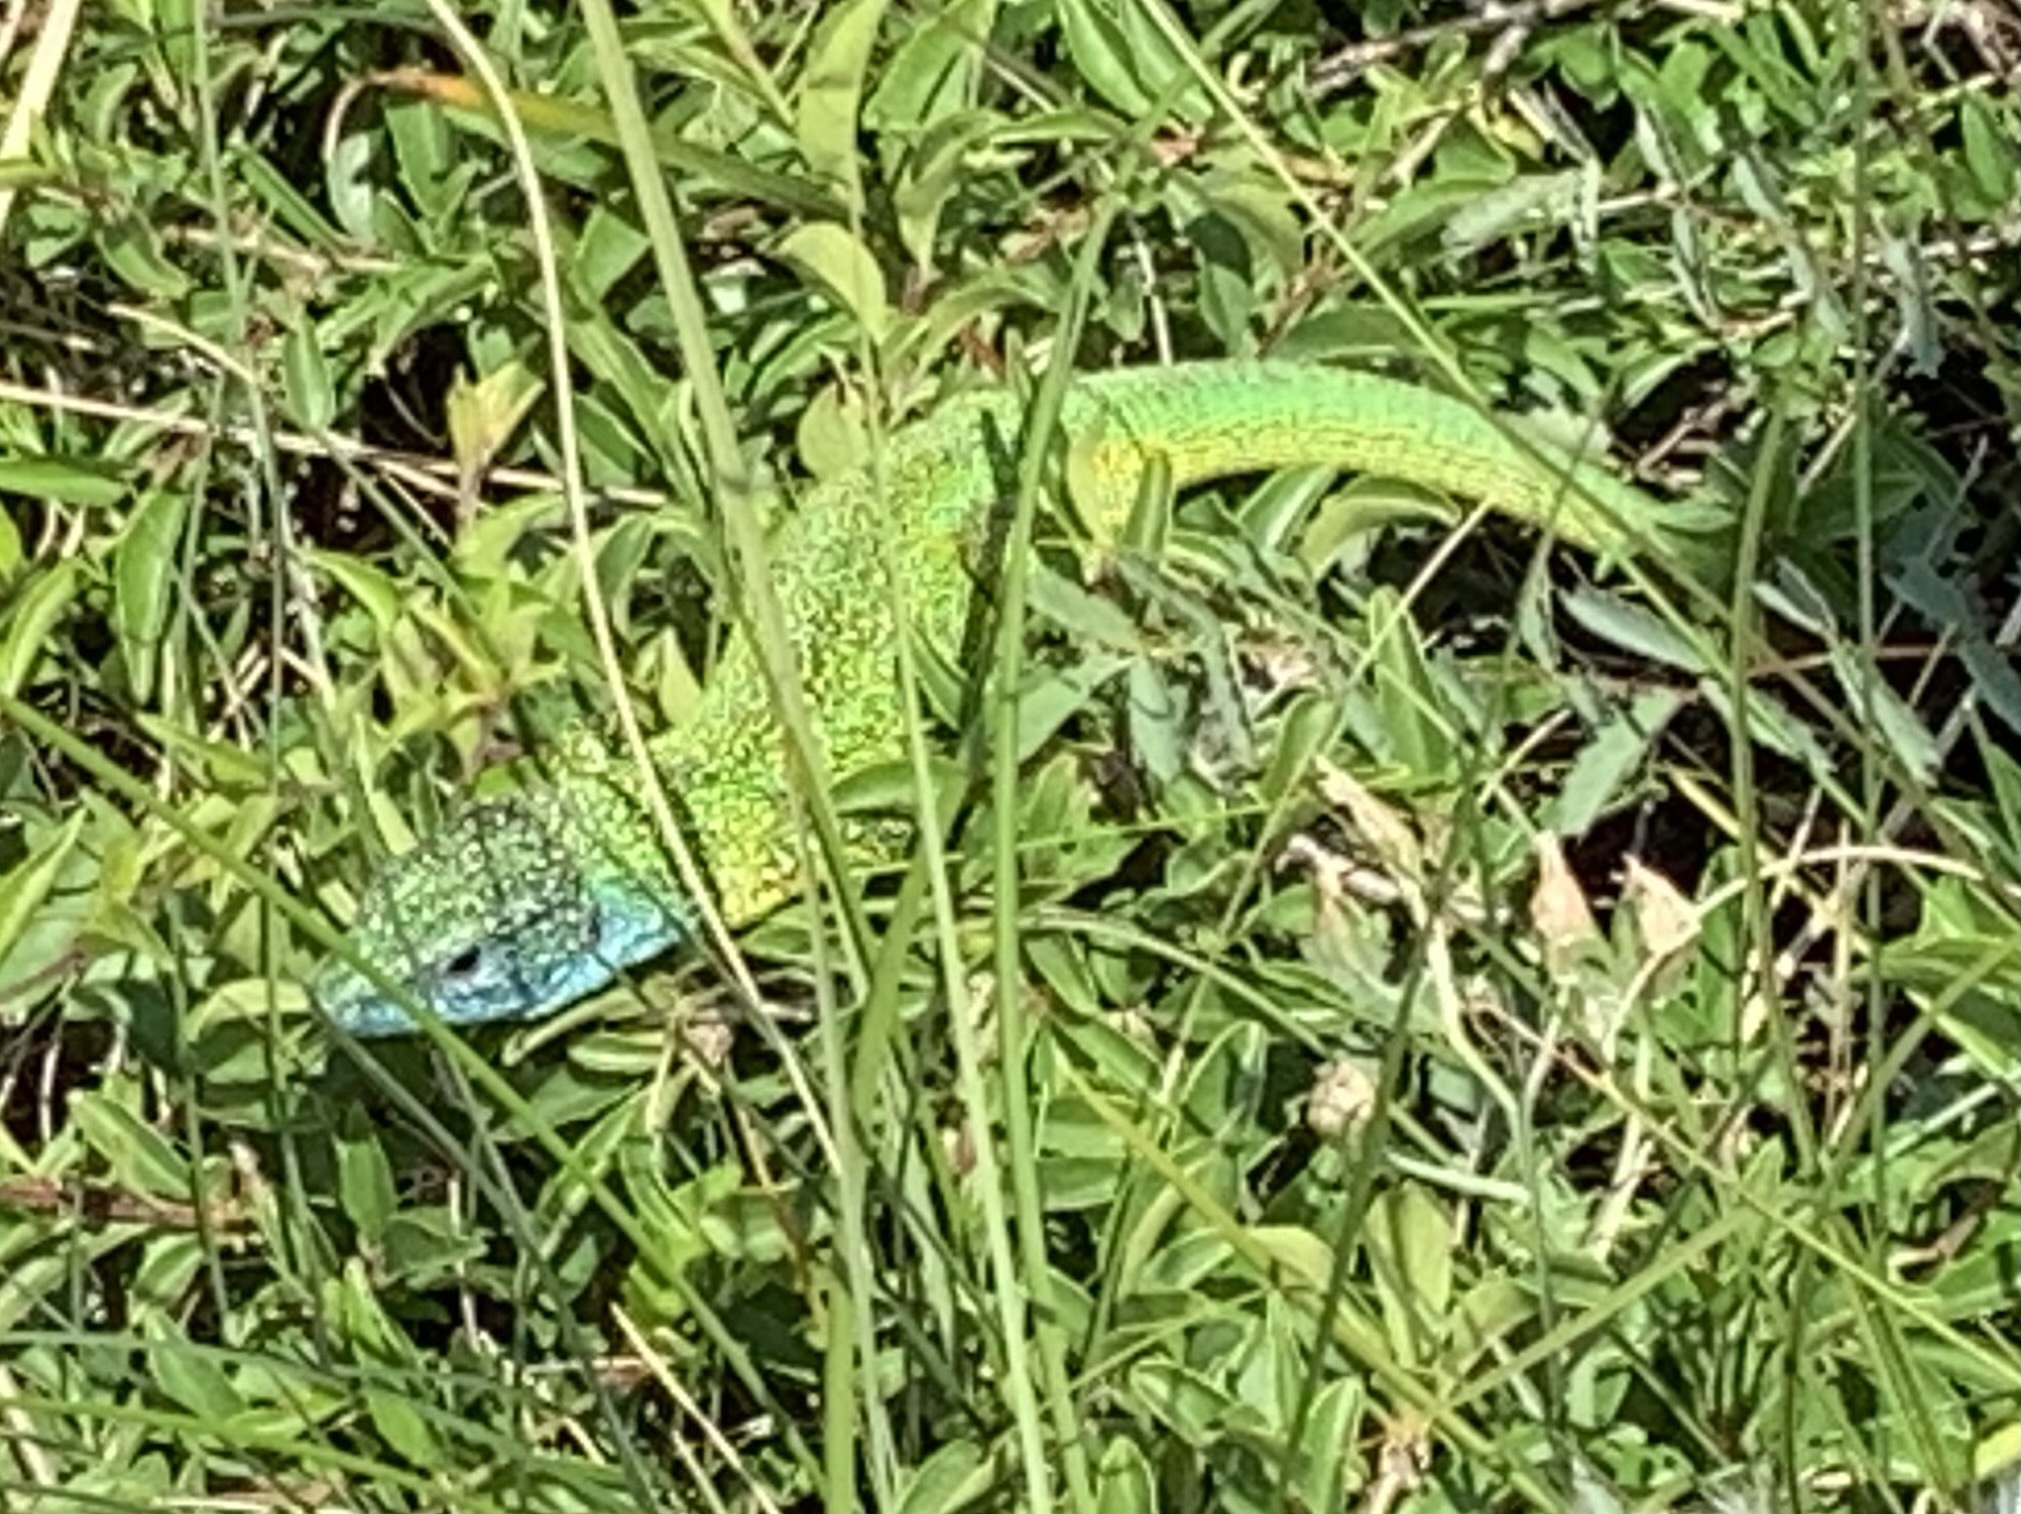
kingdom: Animalia
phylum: Chordata
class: Squamata
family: Lacertidae
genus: Lacerta
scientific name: Lacerta viridis
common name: European green lizard
